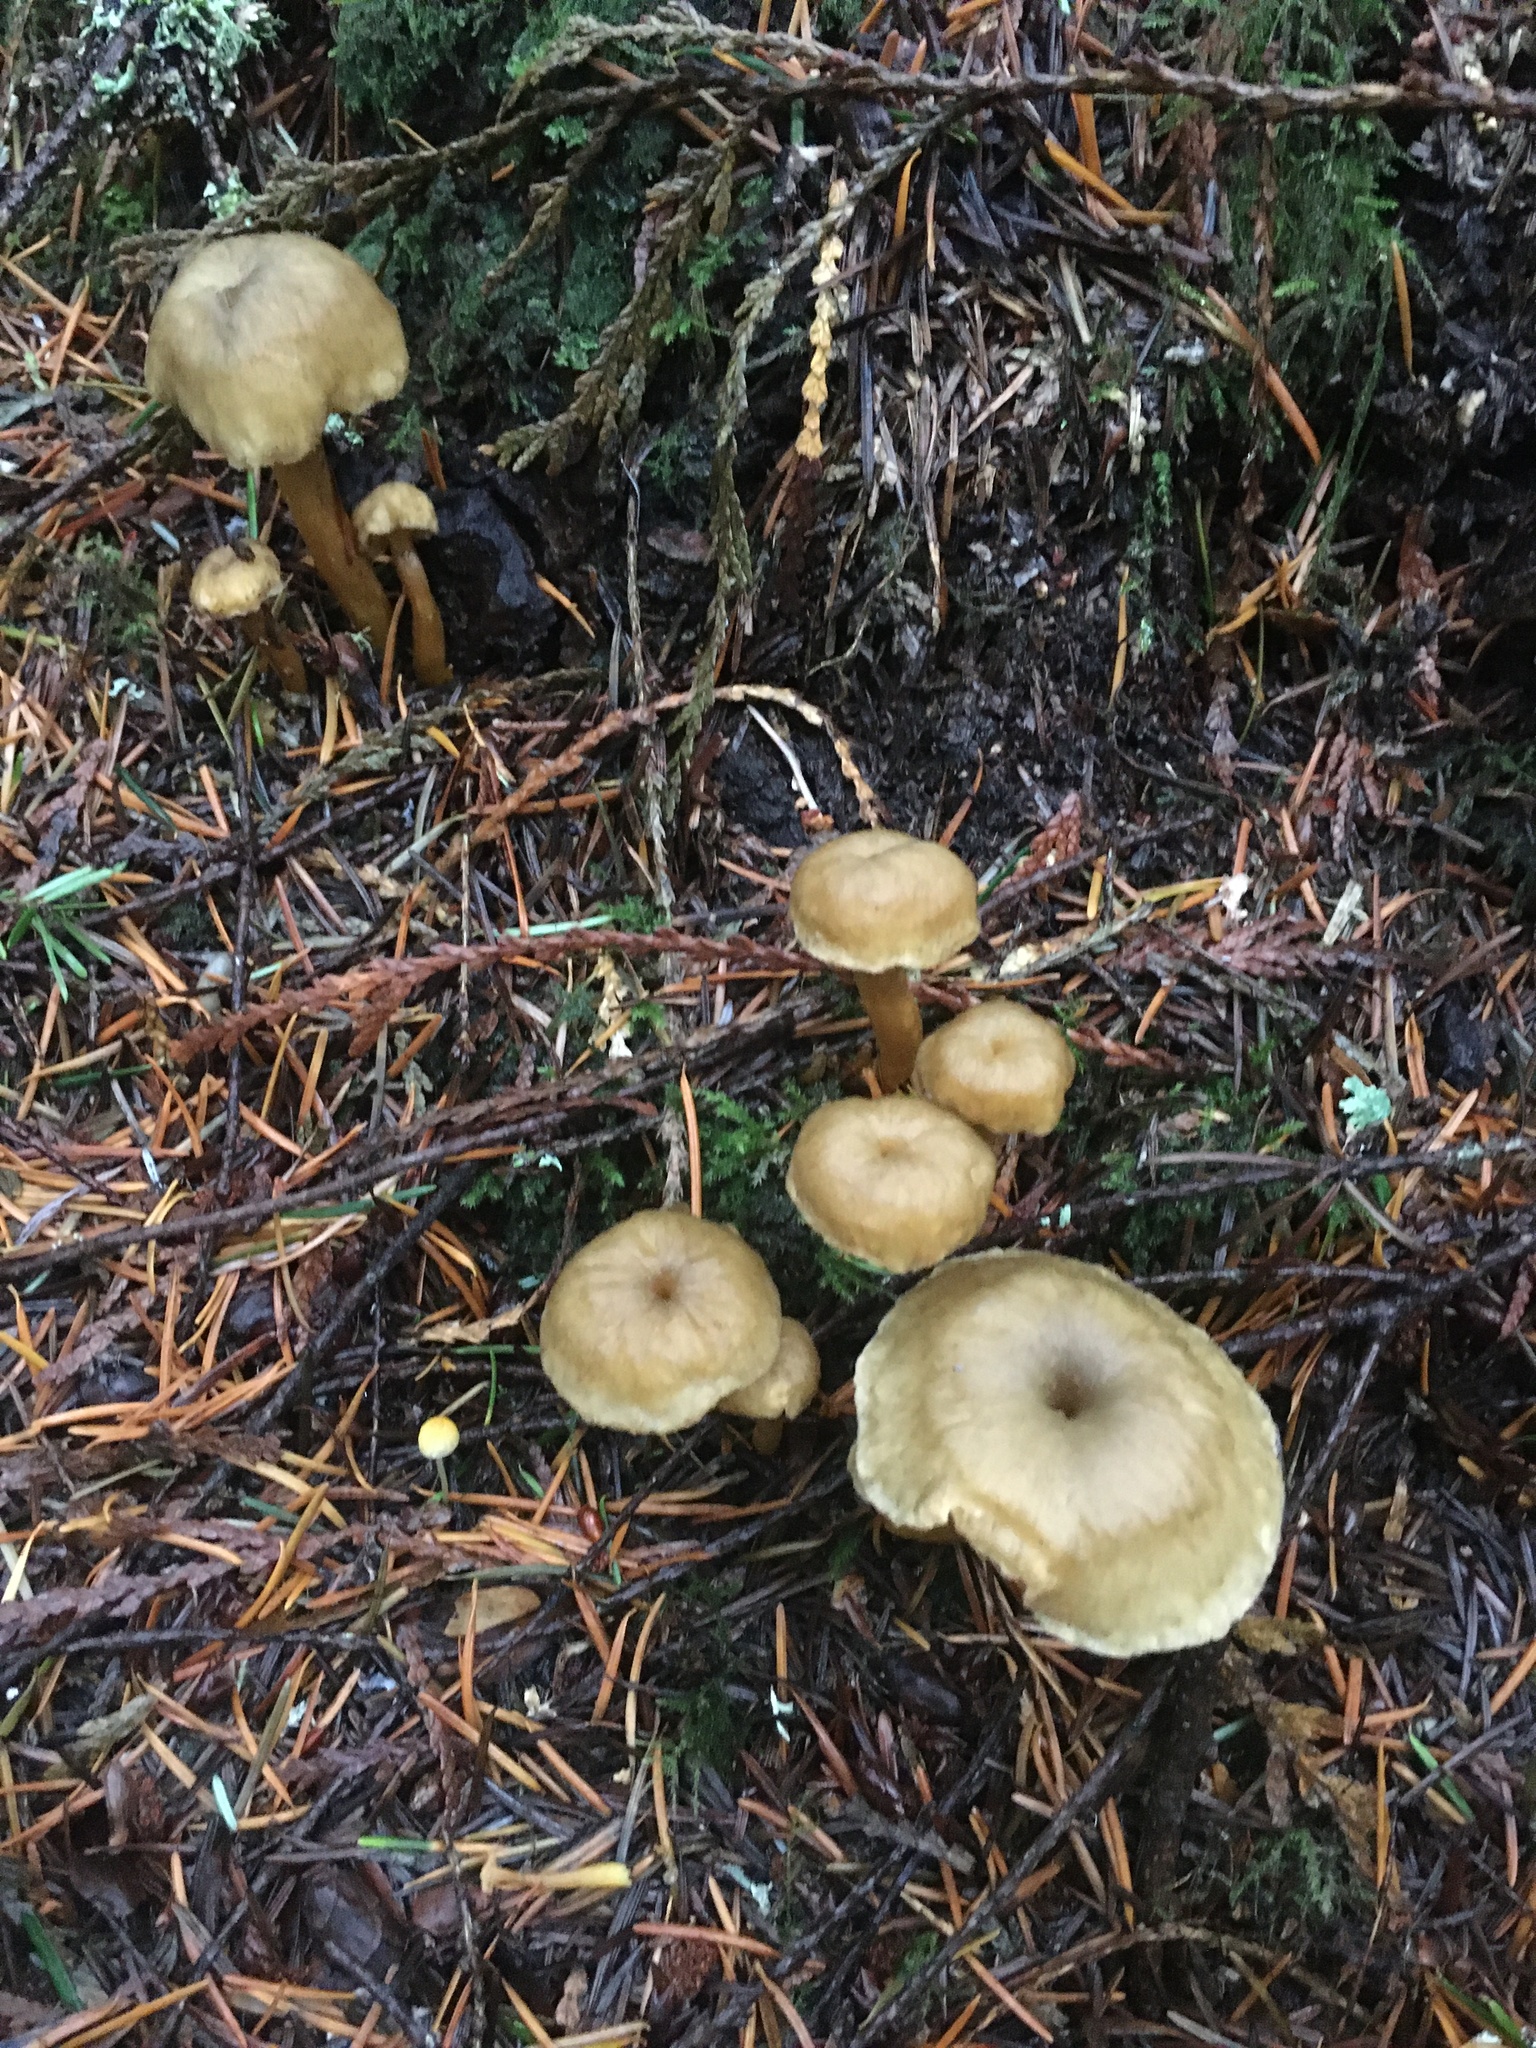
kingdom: Fungi
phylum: Basidiomycota
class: Agaricomycetes
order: Cantharellales
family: Hydnaceae
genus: Craterellus
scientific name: Craterellus tubaeformis
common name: Yellowfoot
